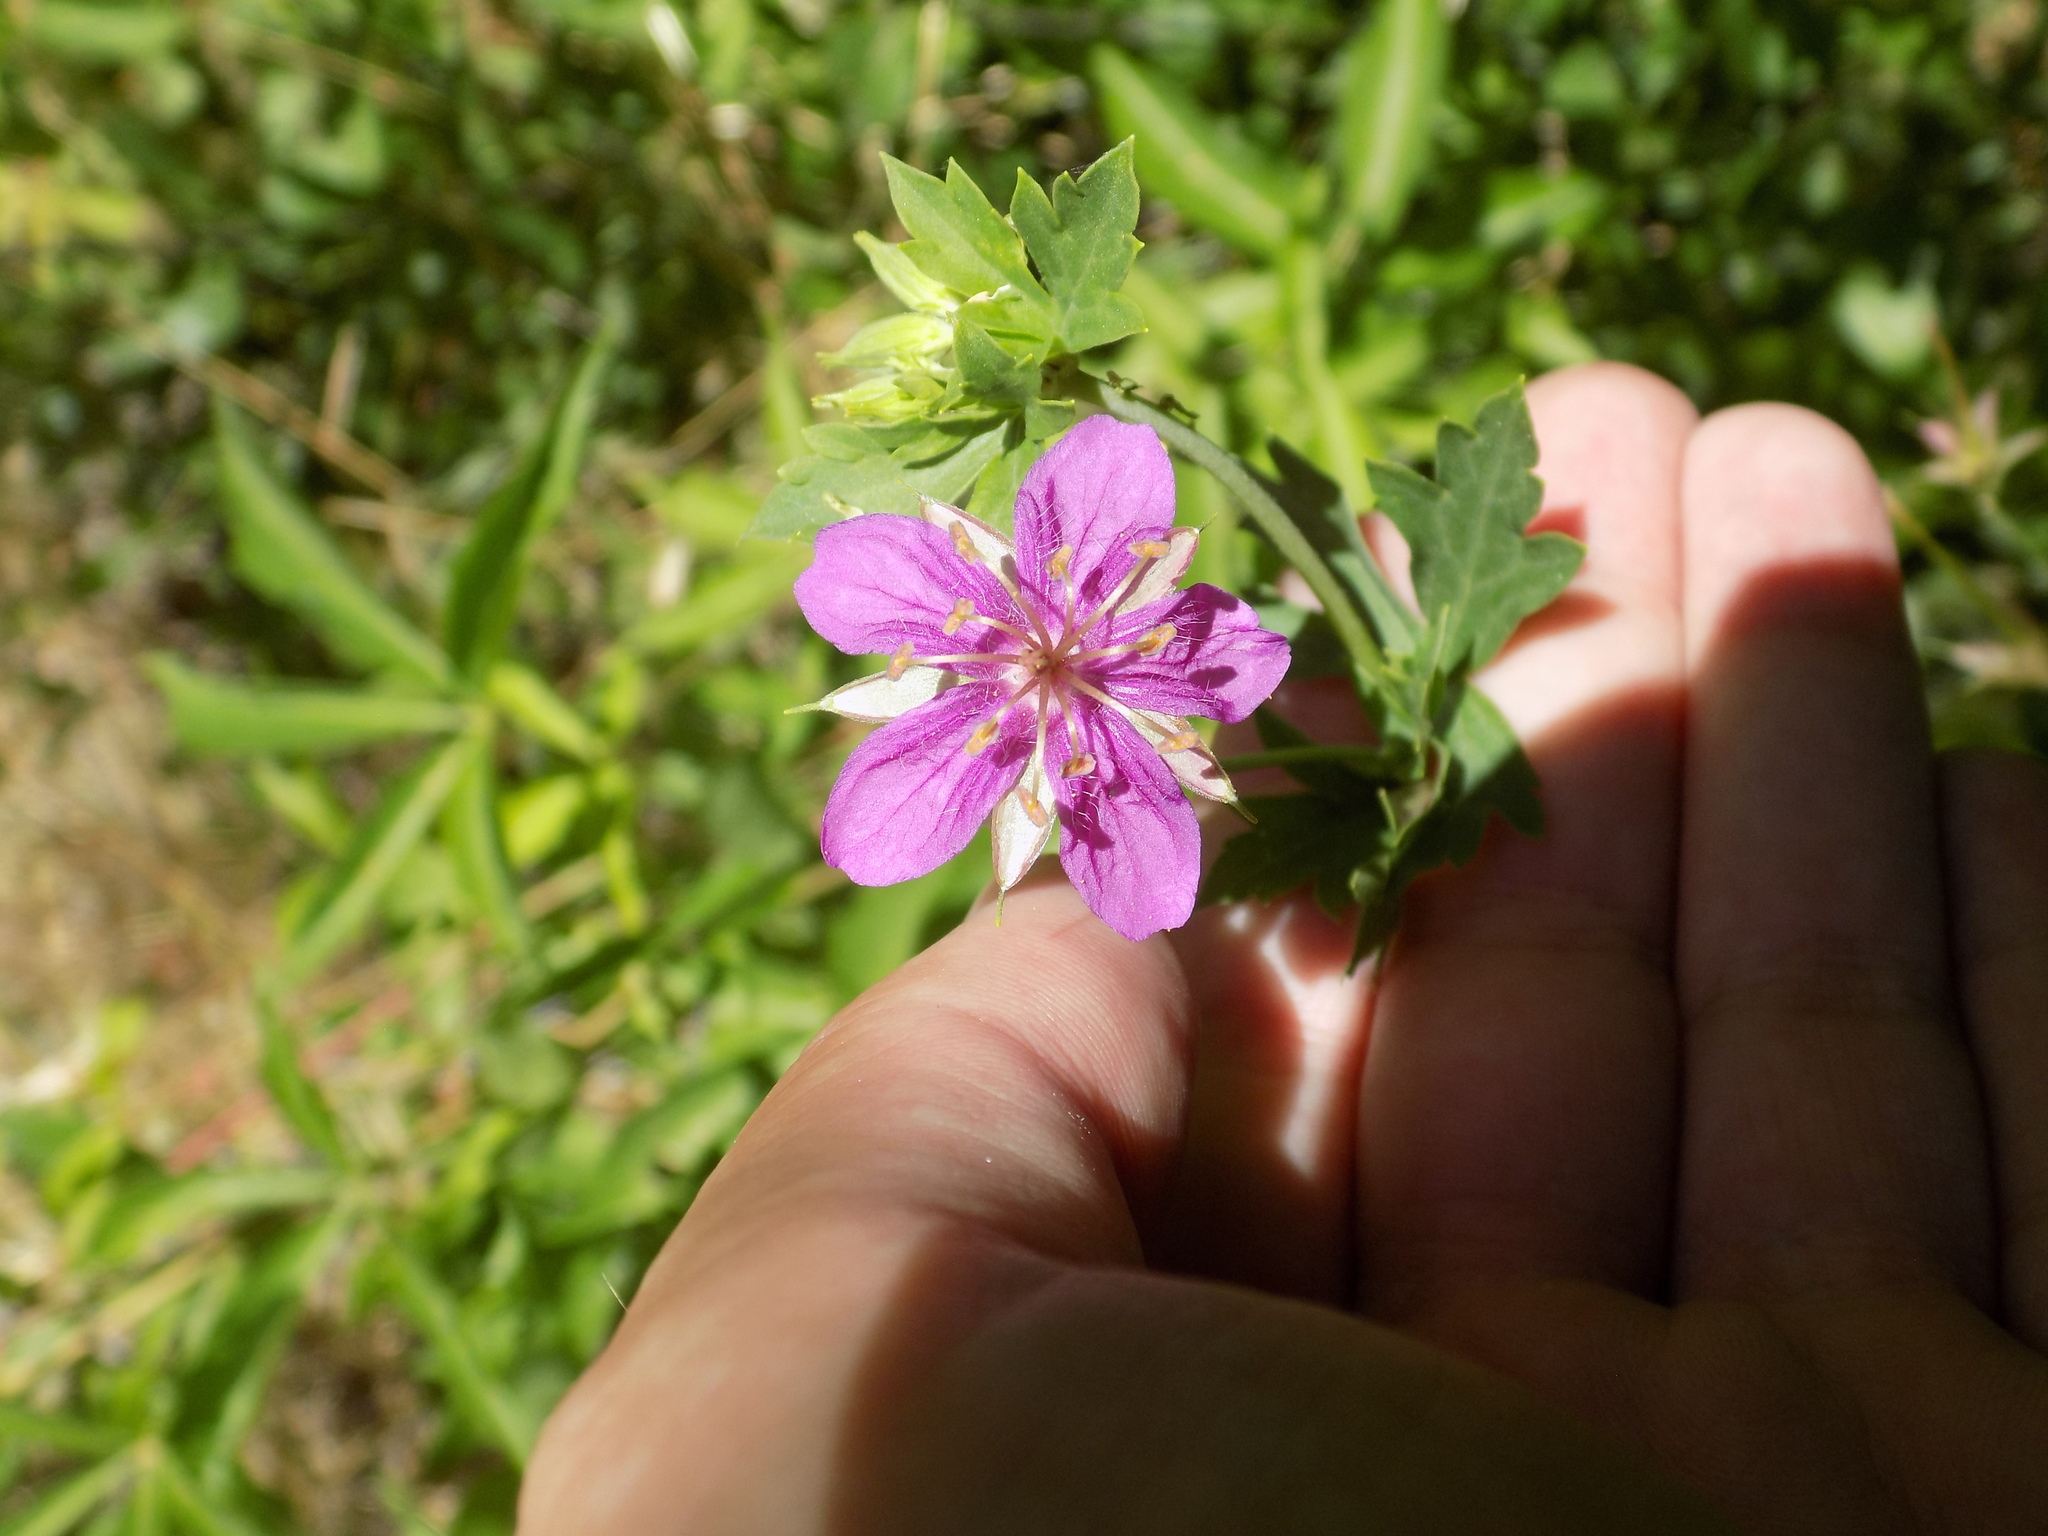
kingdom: Plantae
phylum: Tracheophyta
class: Magnoliopsida
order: Geraniales
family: Geraniaceae
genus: Geranium
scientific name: Geranium caespitosum
